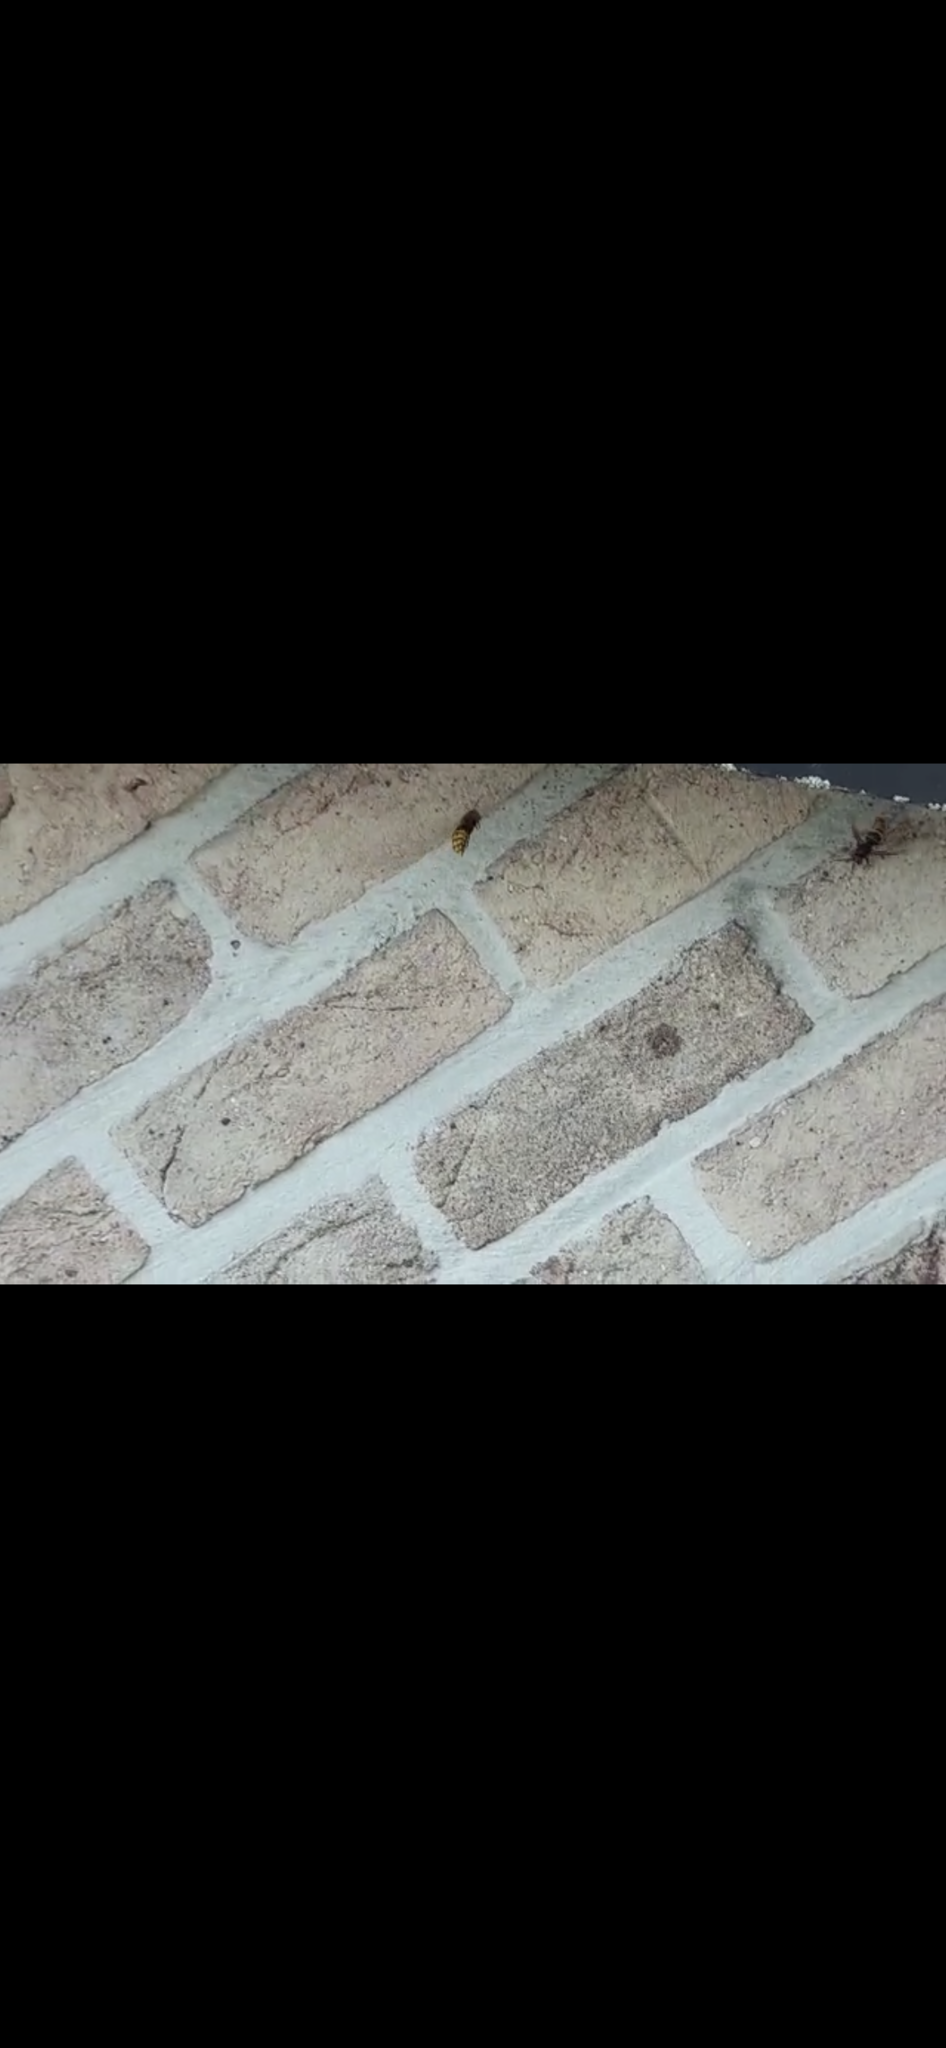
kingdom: Animalia
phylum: Arthropoda
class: Insecta
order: Hymenoptera
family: Vespidae
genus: Vespa
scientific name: Vespa crabro
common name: Hornet
